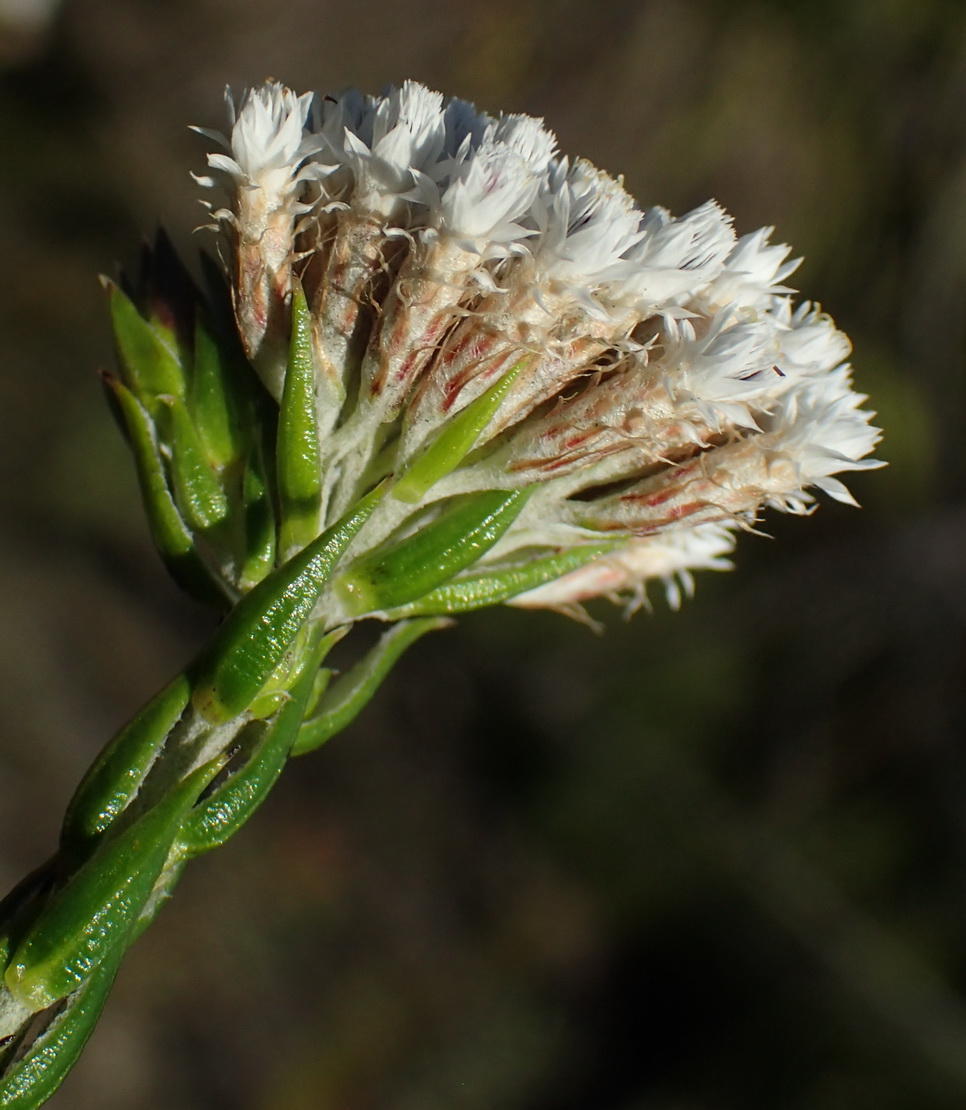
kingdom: Plantae
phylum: Tracheophyta
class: Magnoliopsida
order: Asterales
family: Asteraceae
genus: Metalasia
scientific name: Metalasia pulcherrima
